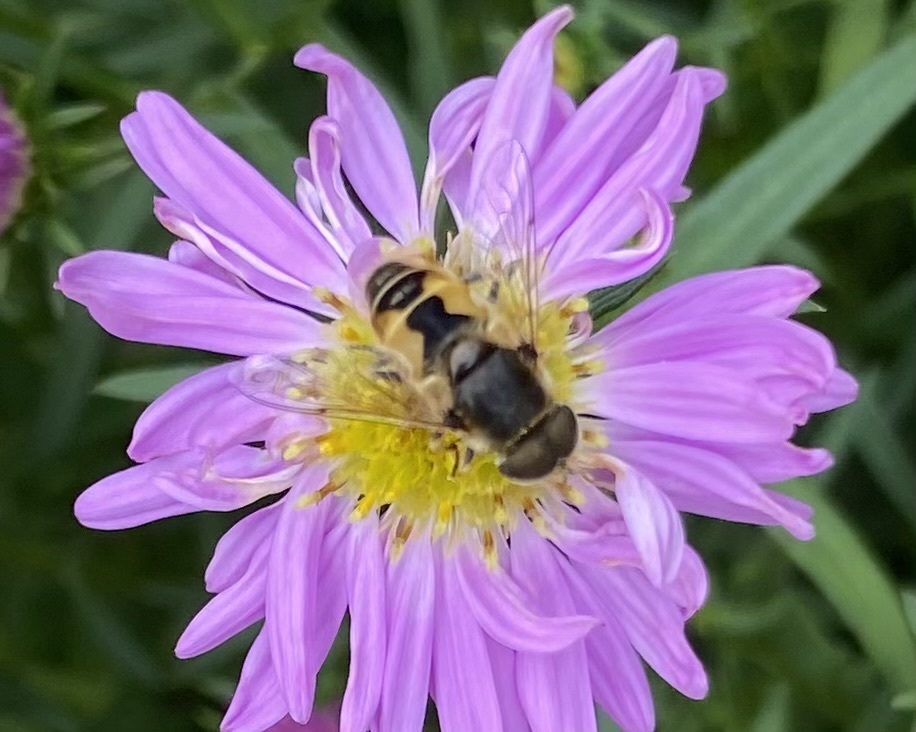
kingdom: Animalia
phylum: Arthropoda
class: Insecta
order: Diptera
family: Syrphidae
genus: Eristalis
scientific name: Eristalis arbustorum
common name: Hover fly
